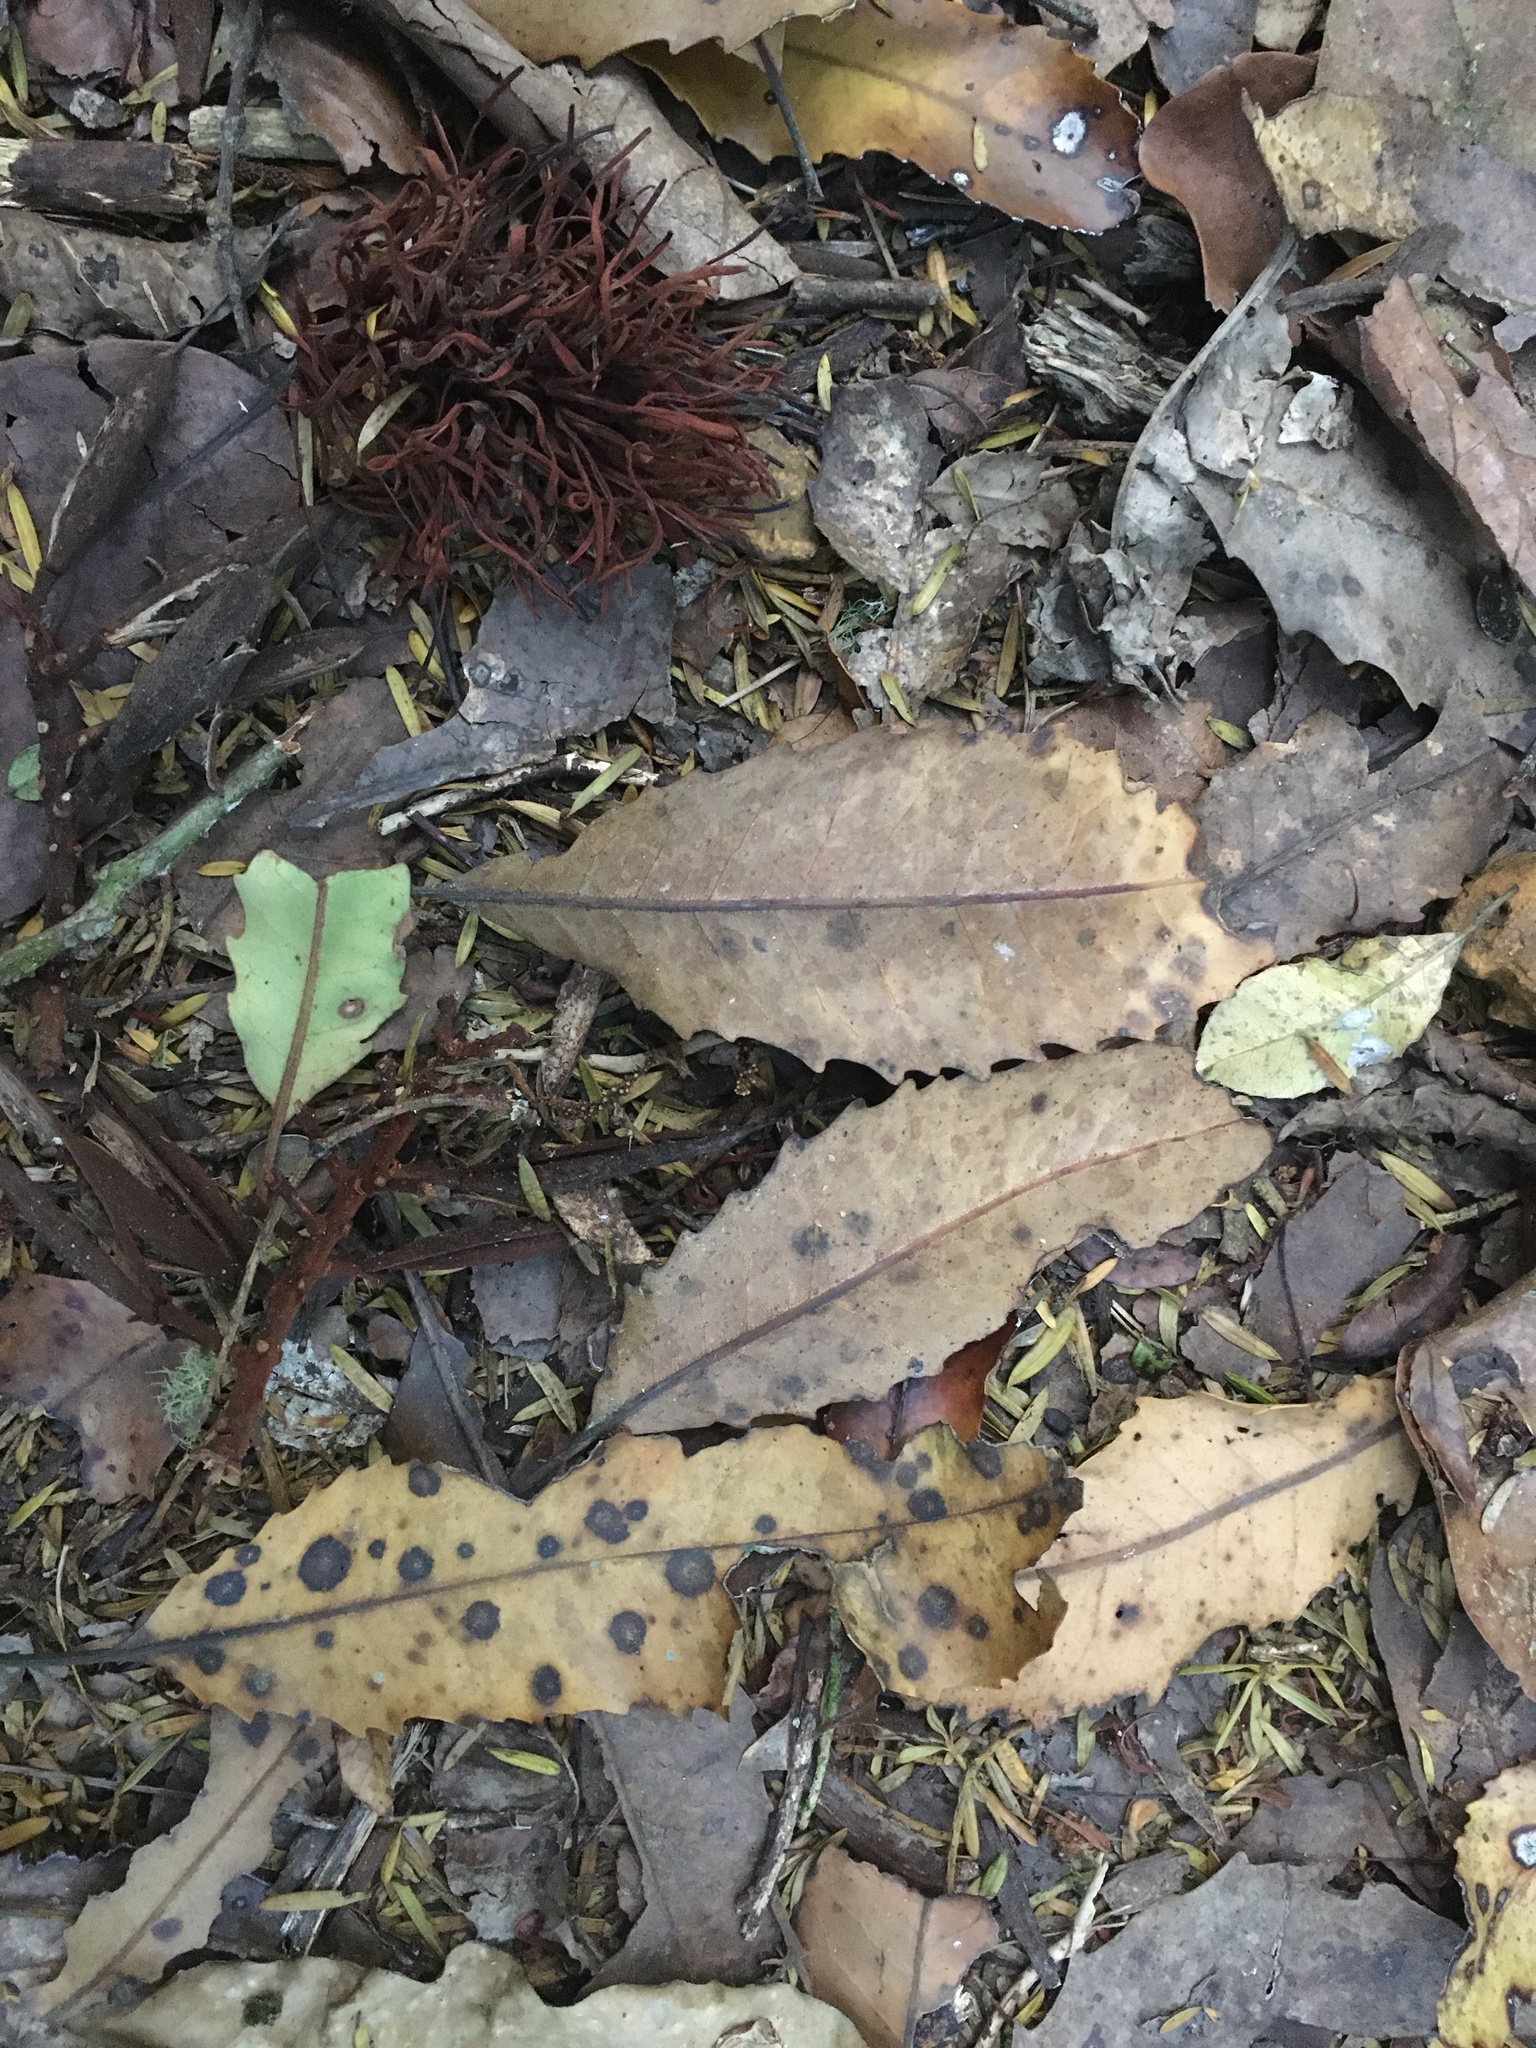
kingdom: Plantae
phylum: Tracheophyta
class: Magnoliopsida
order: Proteales
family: Proteaceae
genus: Knightia
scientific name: Knightia excelsa
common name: New zealand-honeysuckle
